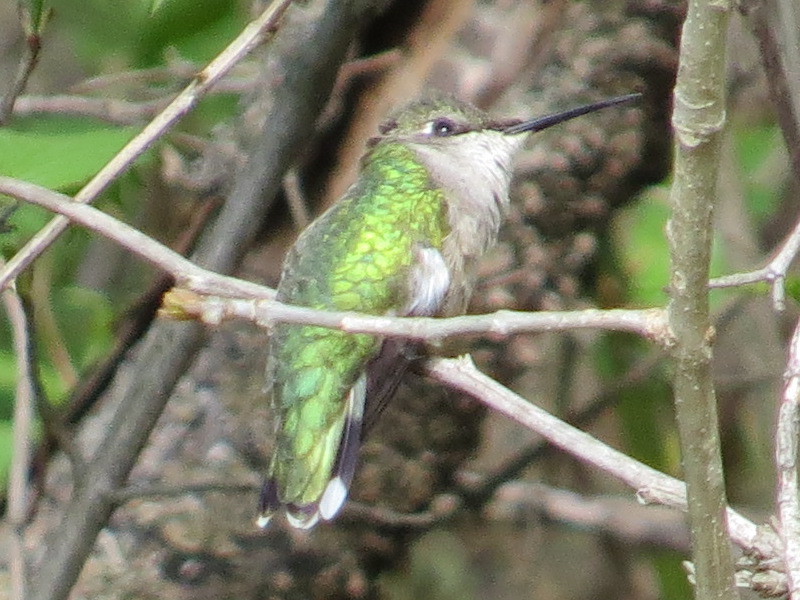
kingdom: Animalia
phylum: Chordata
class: Aves
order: Apodiformes
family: Trochilidae
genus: Archilochus
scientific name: Archilochus colubris
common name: Ruby-throated hummingbird
